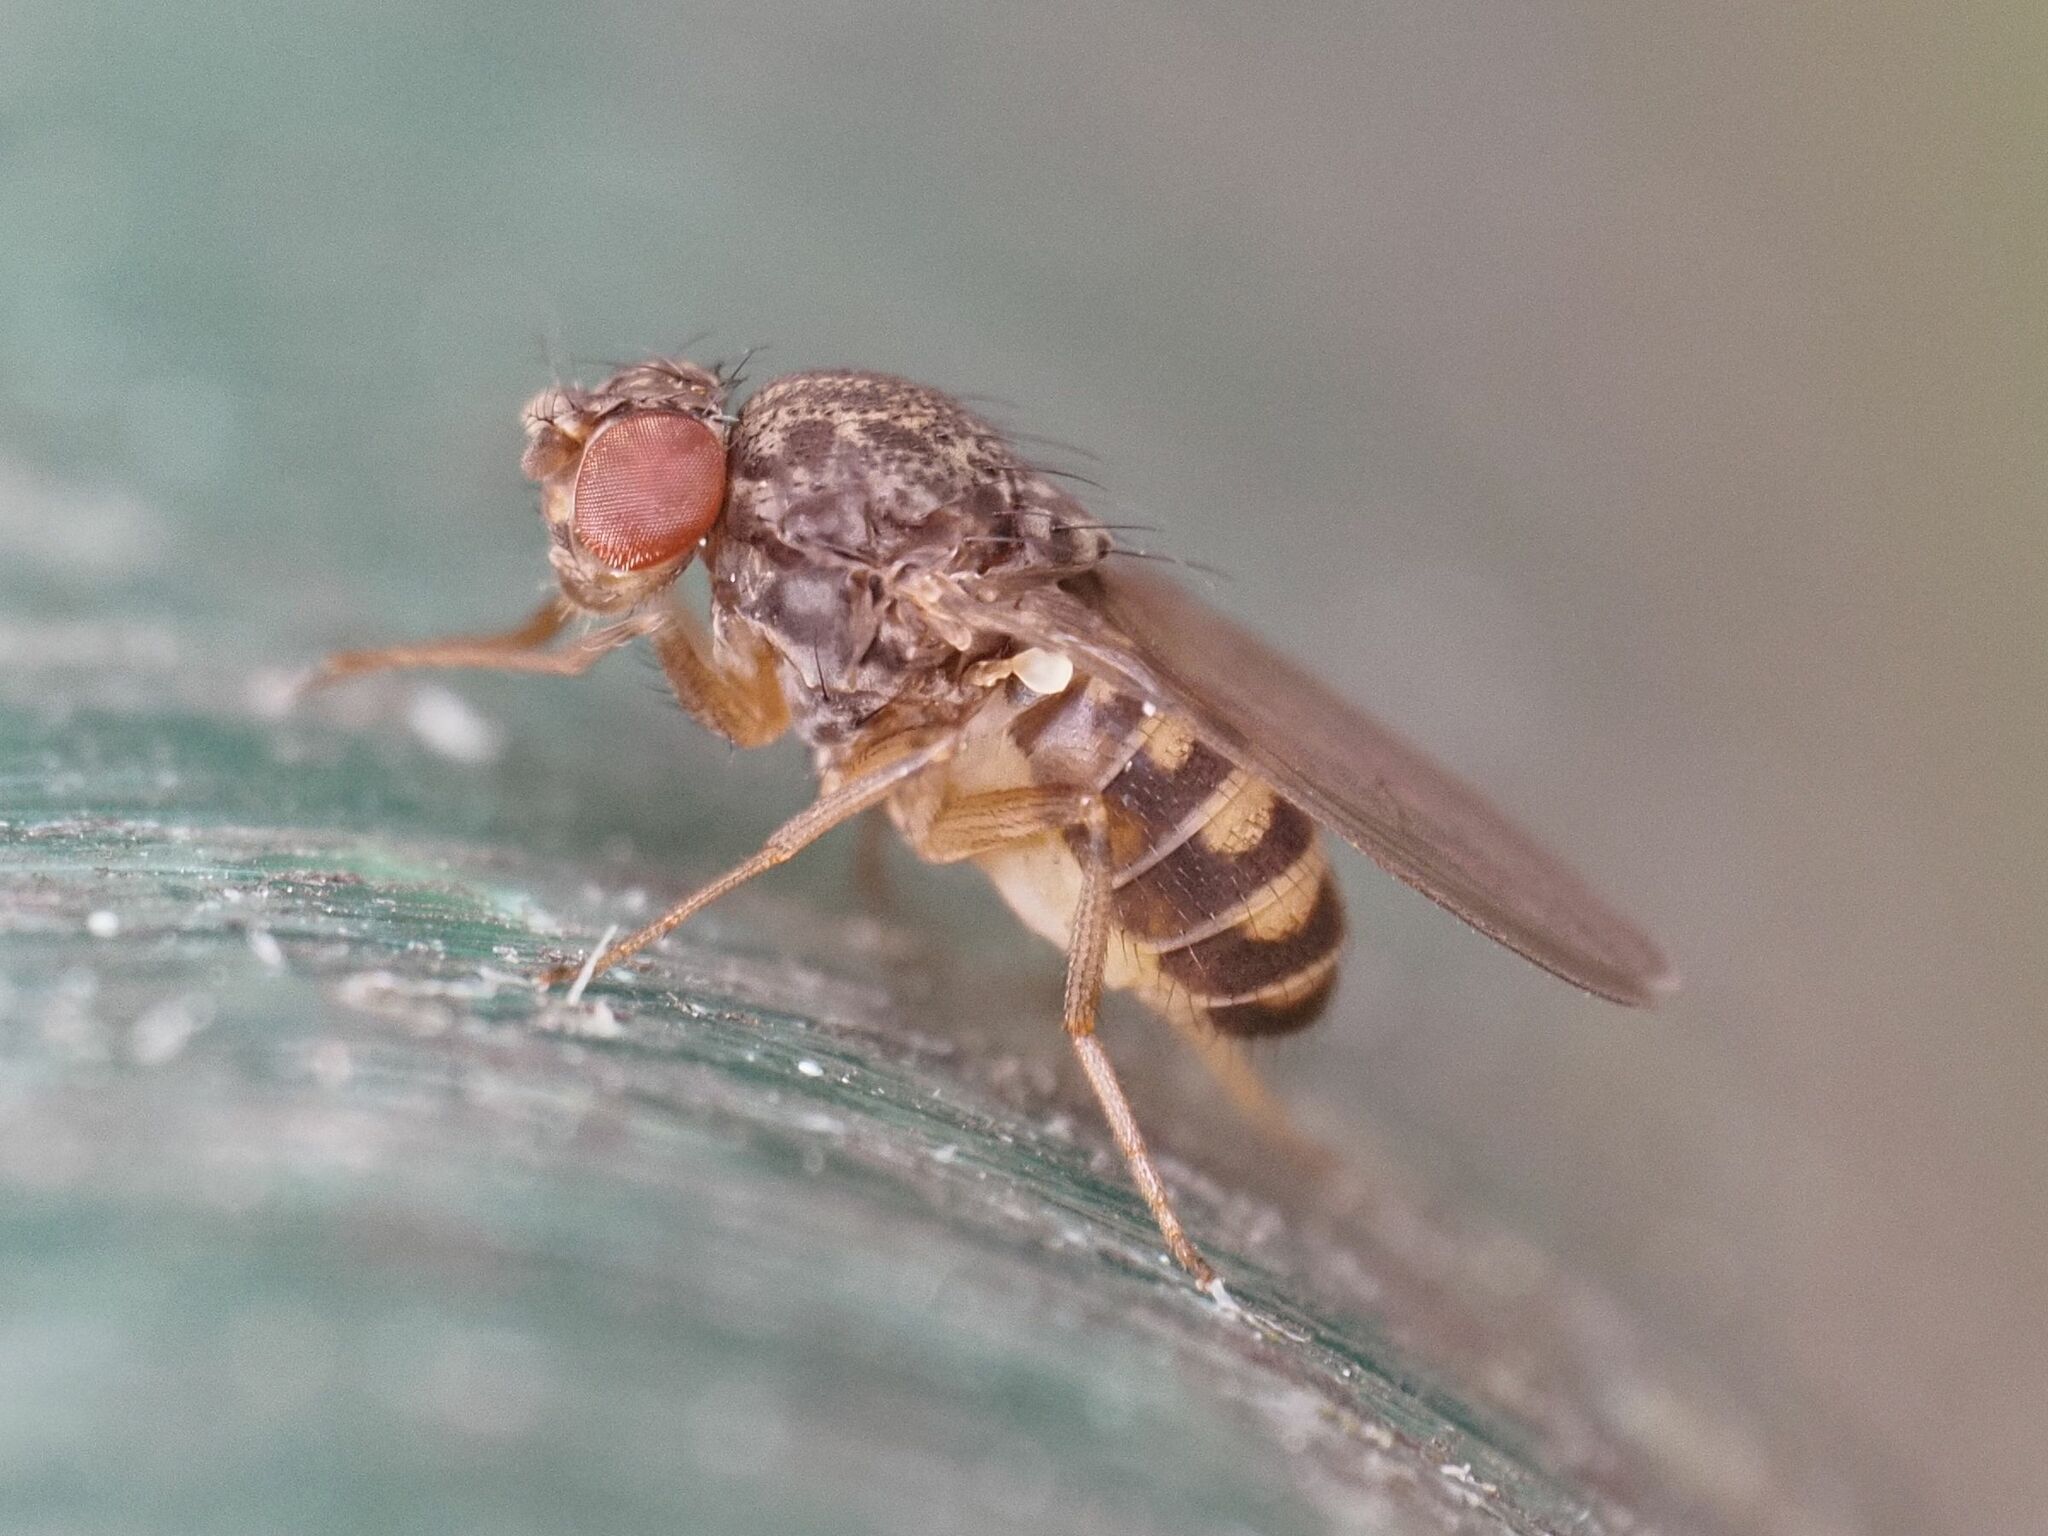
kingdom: Animalia
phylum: Arthropoda
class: Insecta
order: Diptera
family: Drosophilidae
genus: Drosophila
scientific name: Drosophila hydei
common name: Pomace fly
